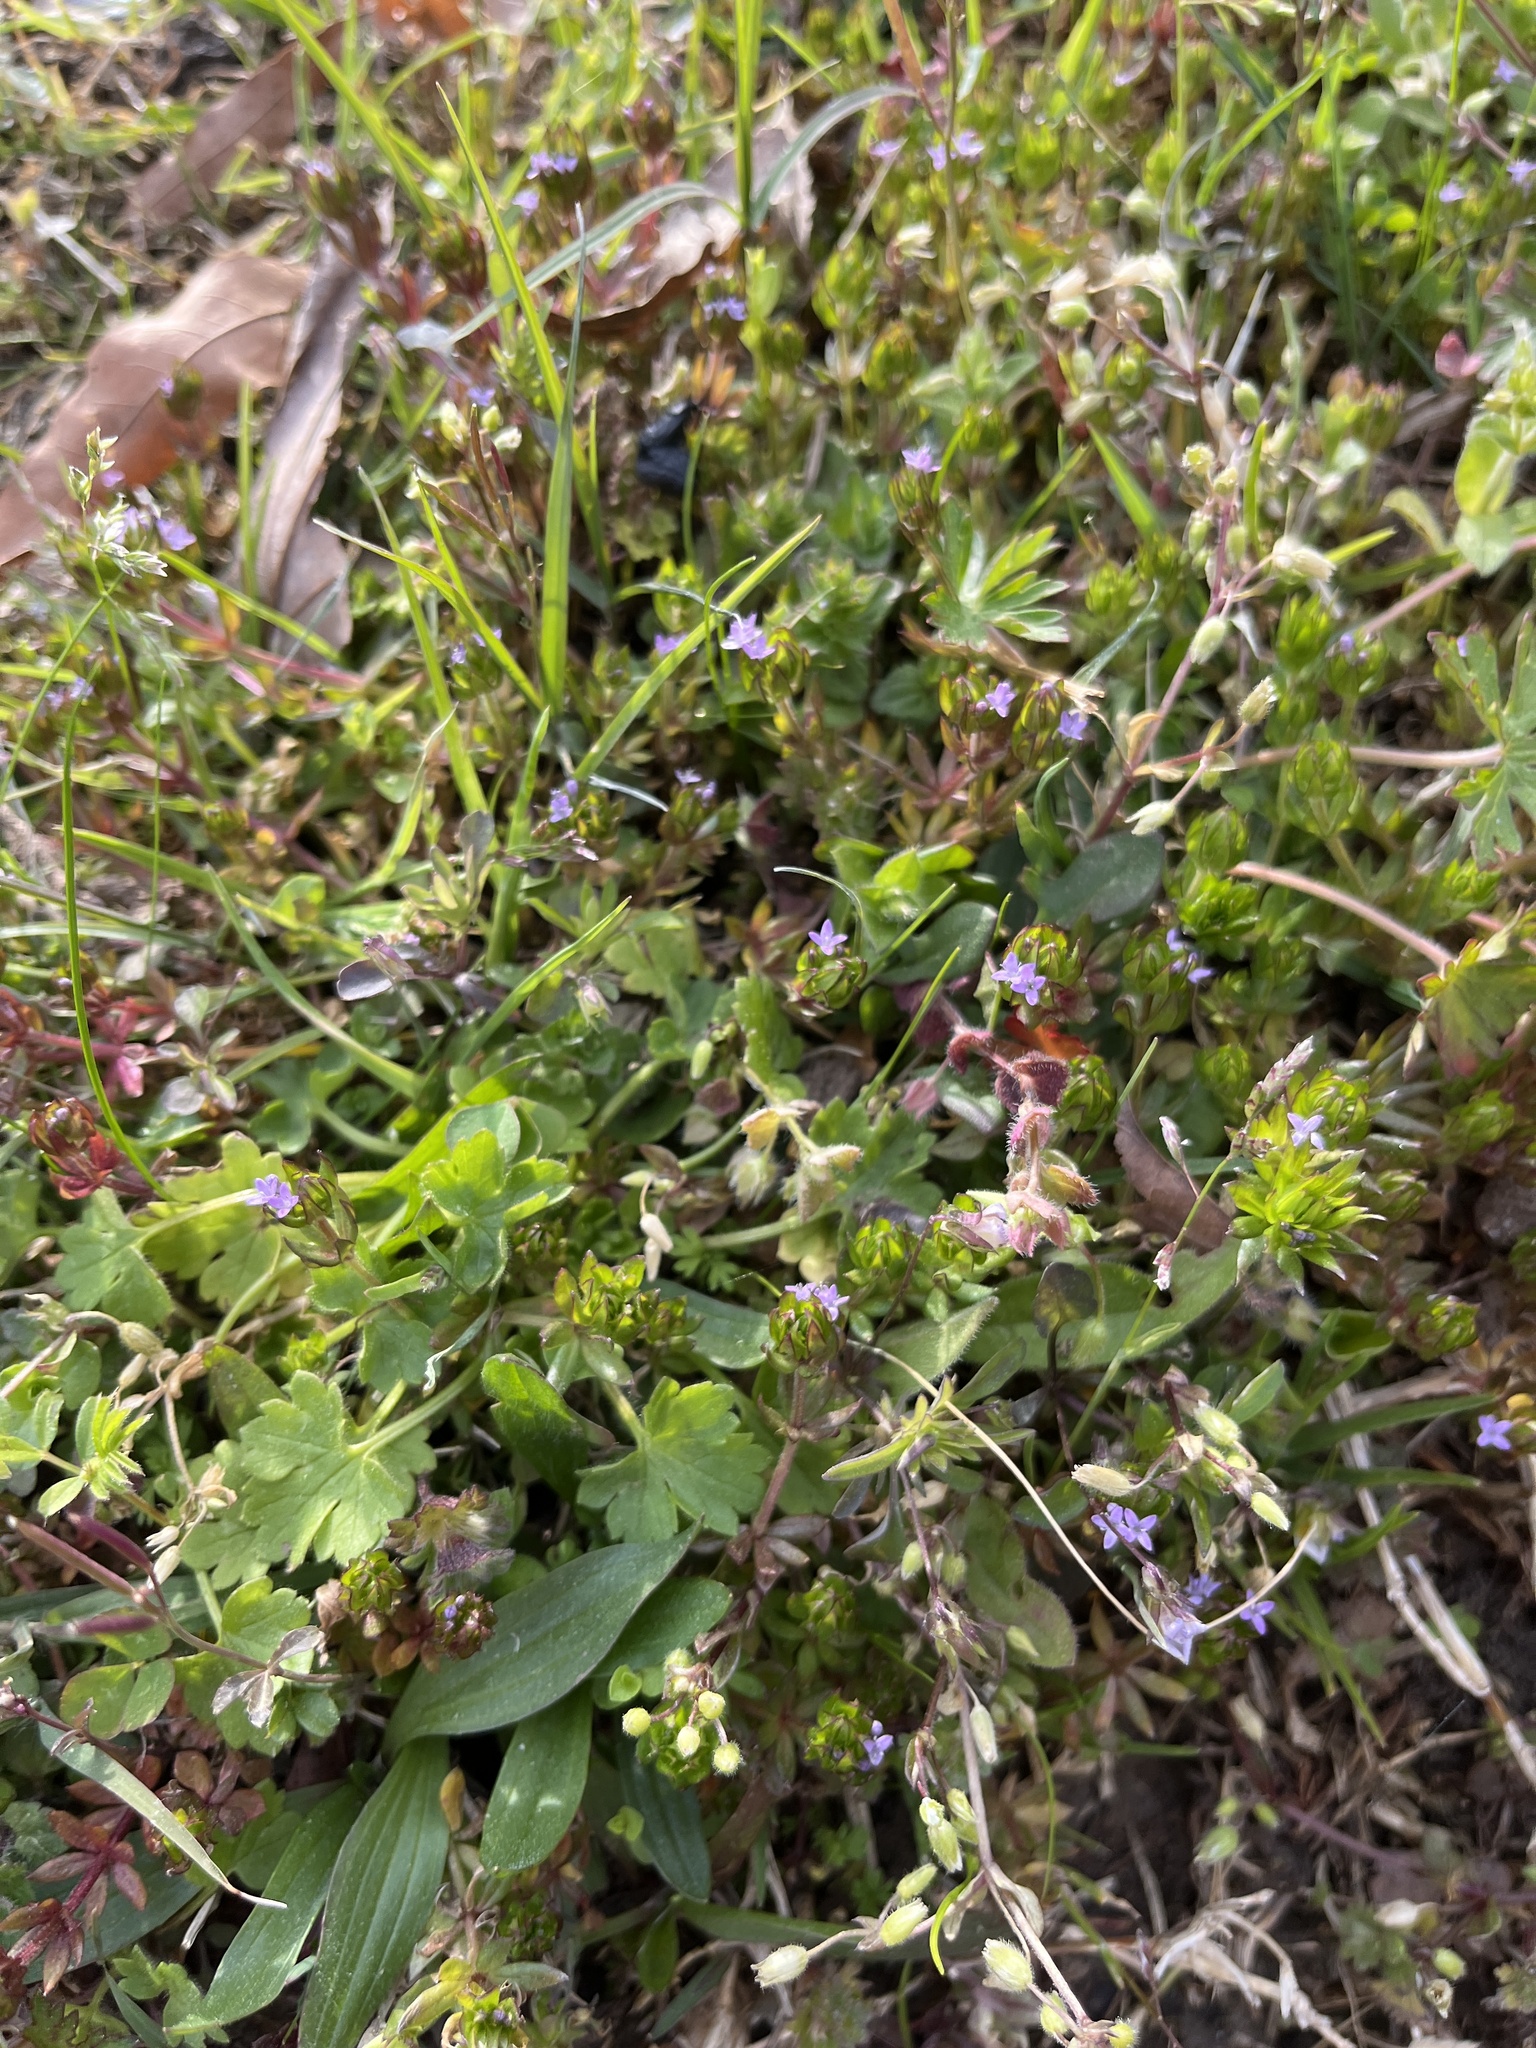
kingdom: Plantae
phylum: Tracheophyta
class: Magnoliopsida
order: Gentianales
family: Rubiaceae
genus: Sherardia
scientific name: Sherardia arvensis
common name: Field madder
